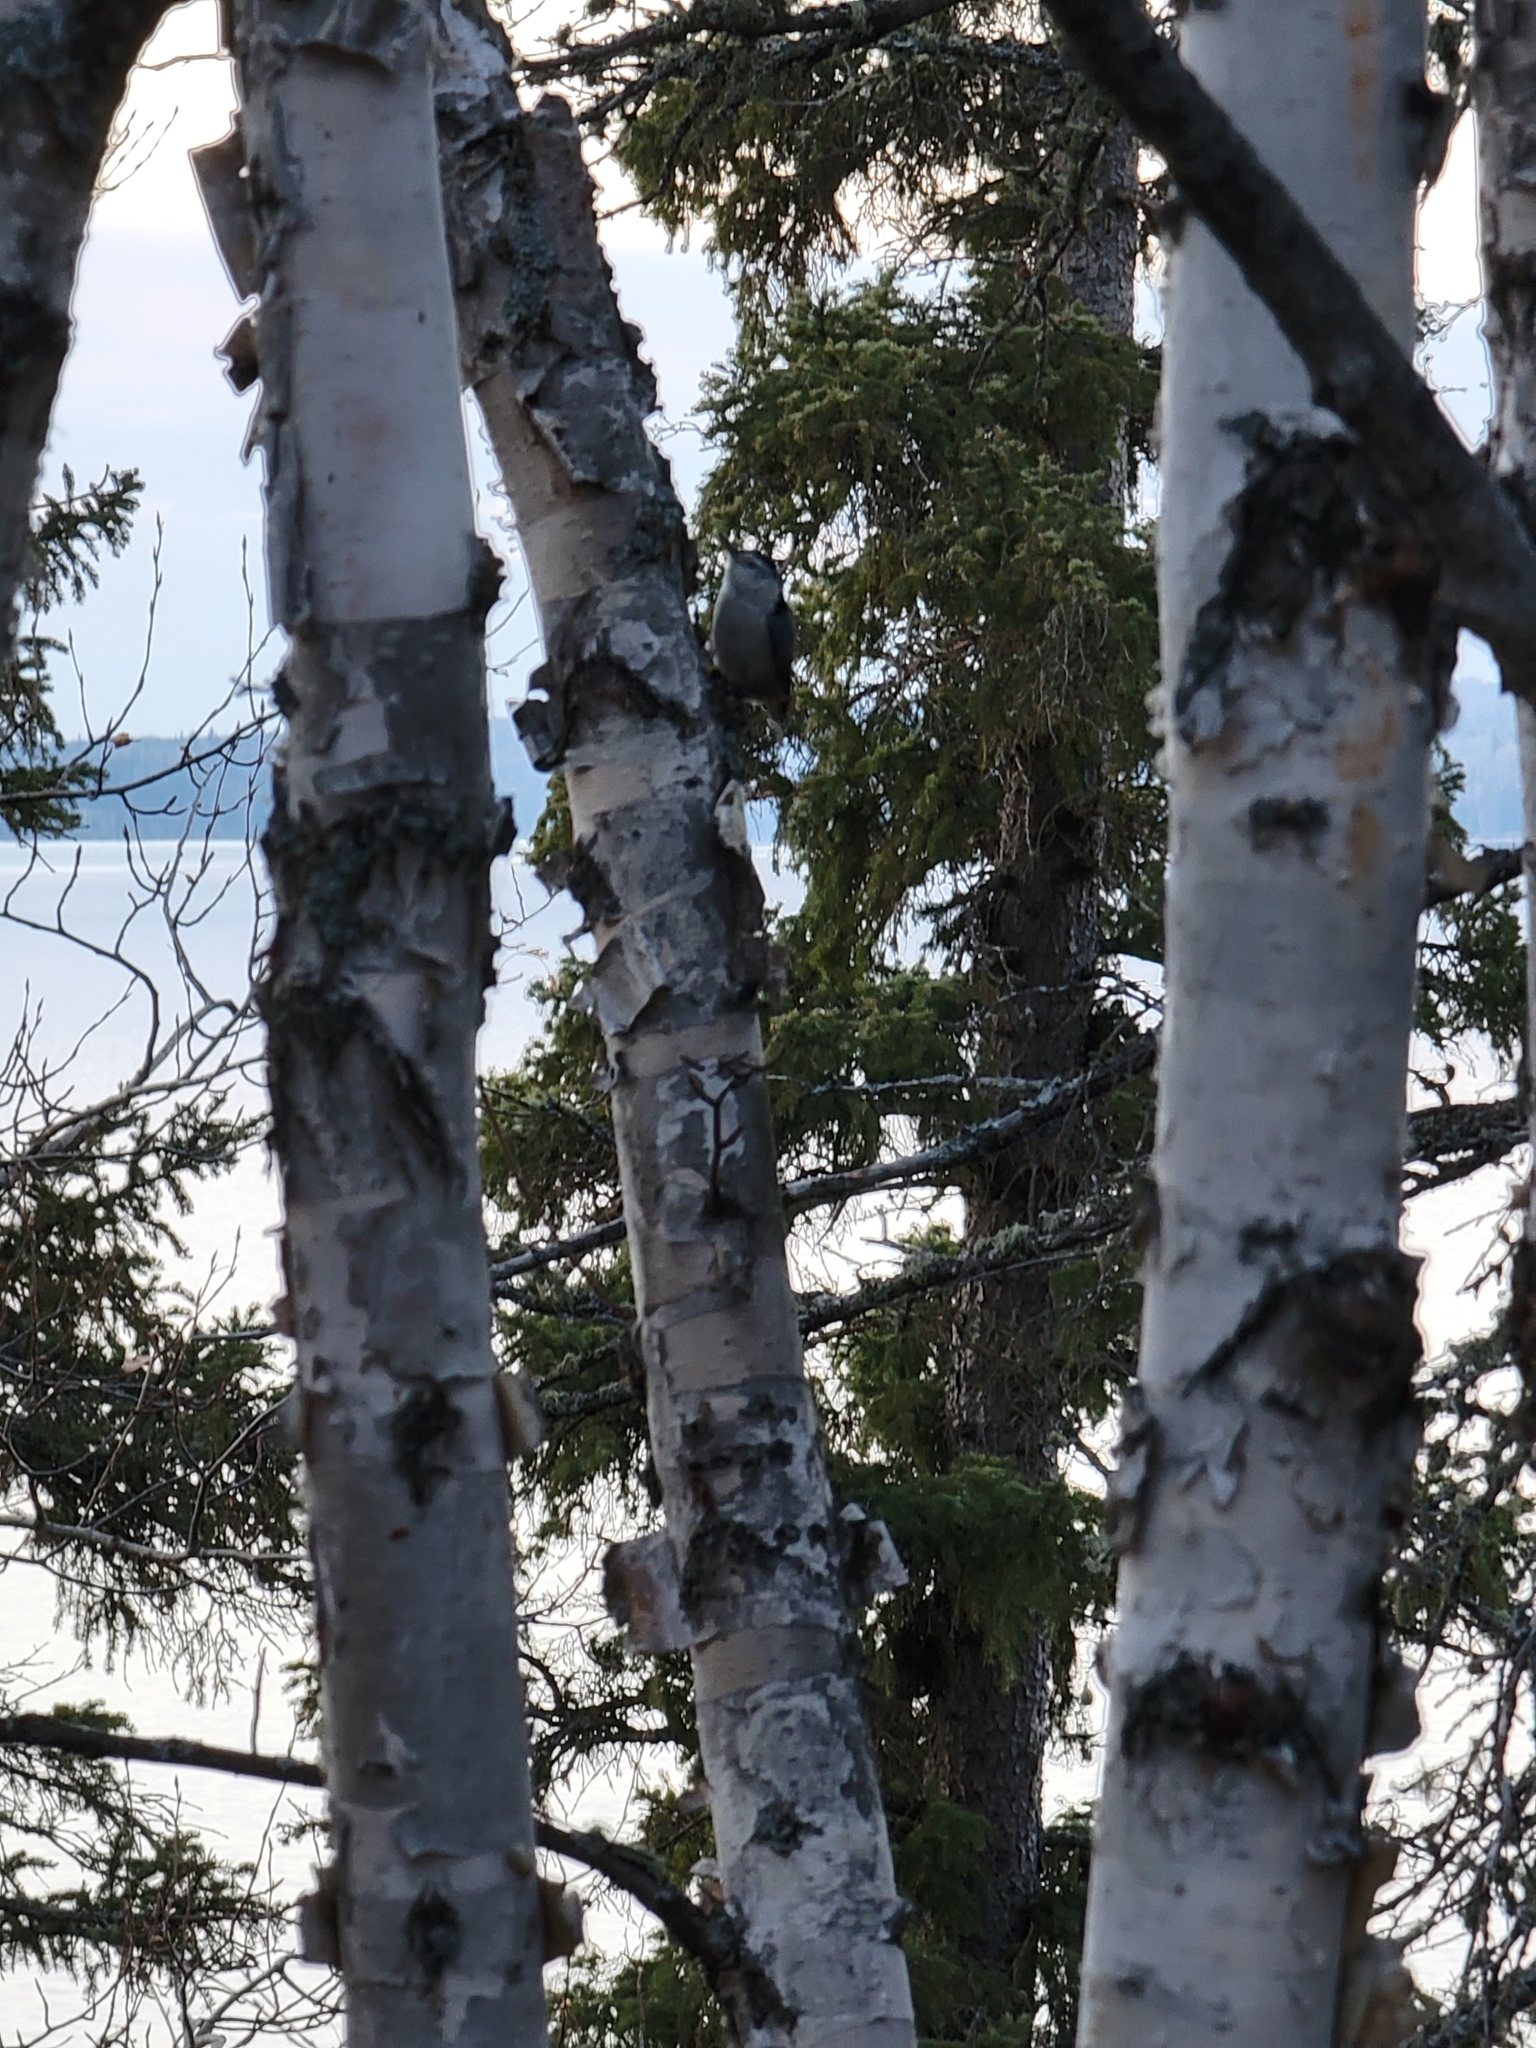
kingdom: Animalia
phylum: Chordata
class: Aves
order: Passeriformes
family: Sittidae
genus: Sitta
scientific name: Sitta carolinensis
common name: White-breasted nuthatch
